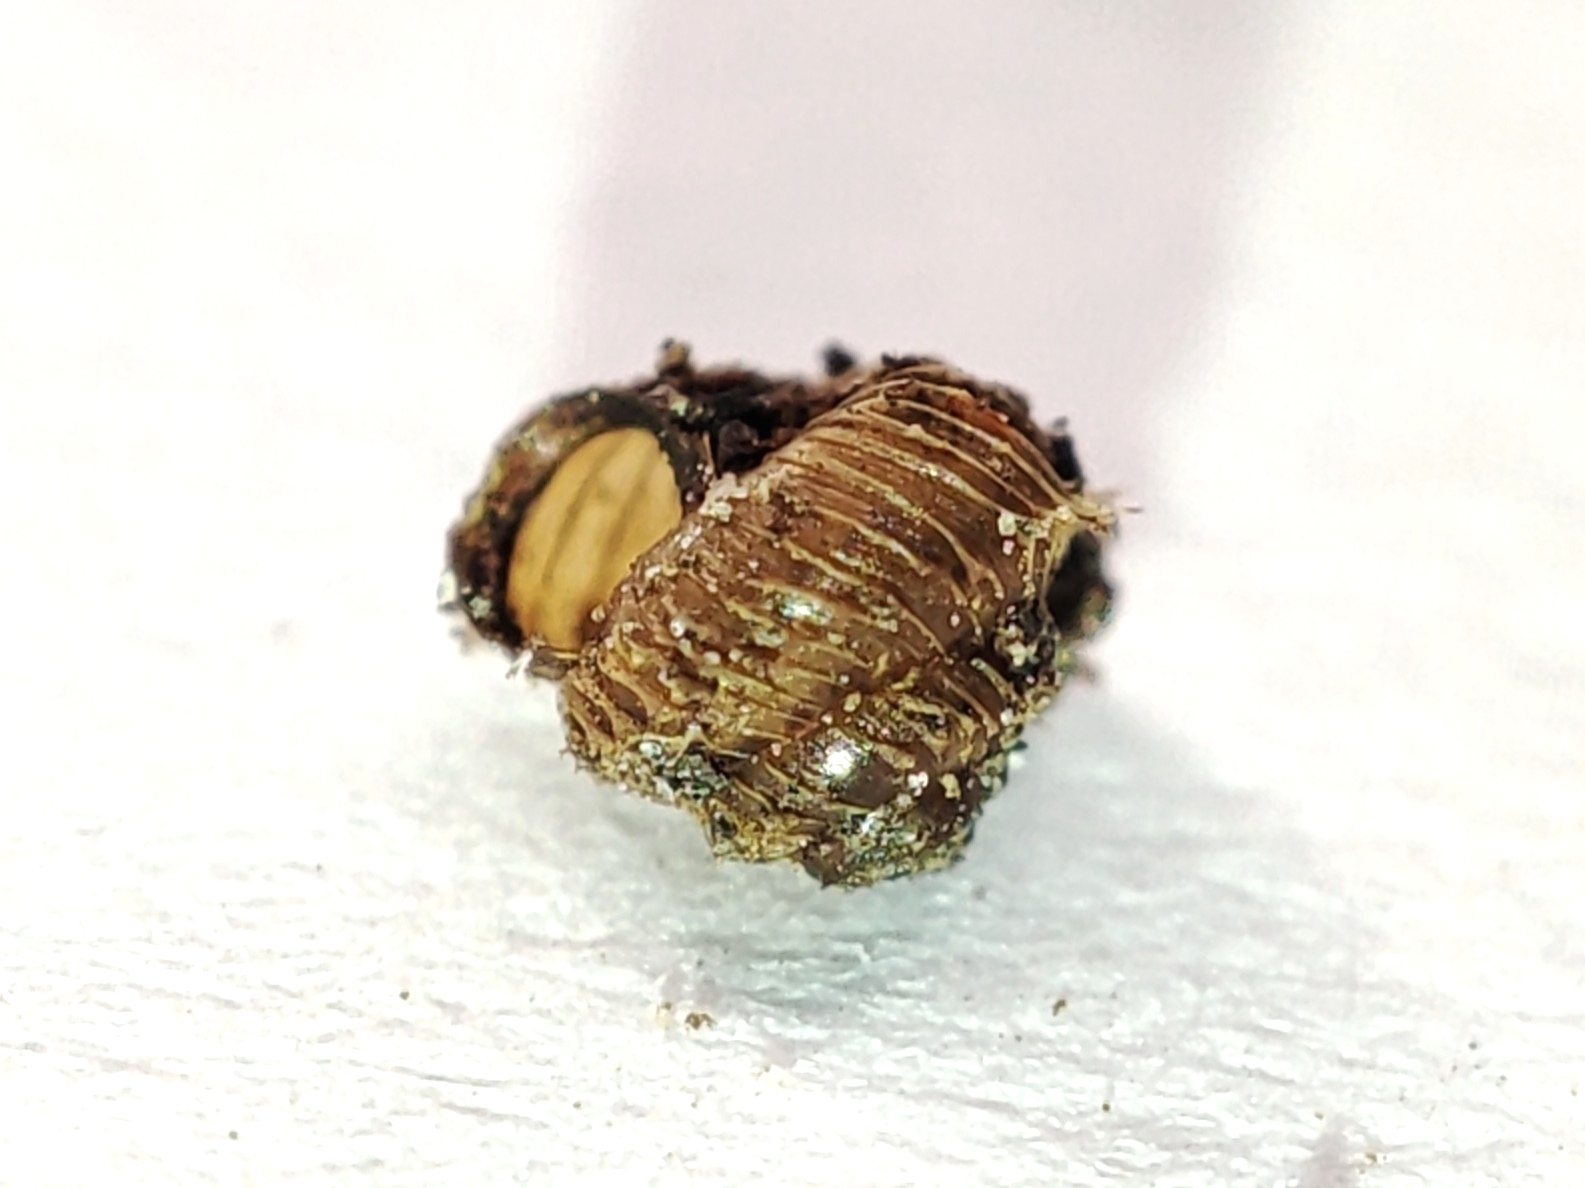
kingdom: Animalia
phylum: Mollusca
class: Gastropoda
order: Stylommatophora
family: Valloniidae
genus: Acanthinula
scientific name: Acanthinula aculeata
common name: Prickly snail
